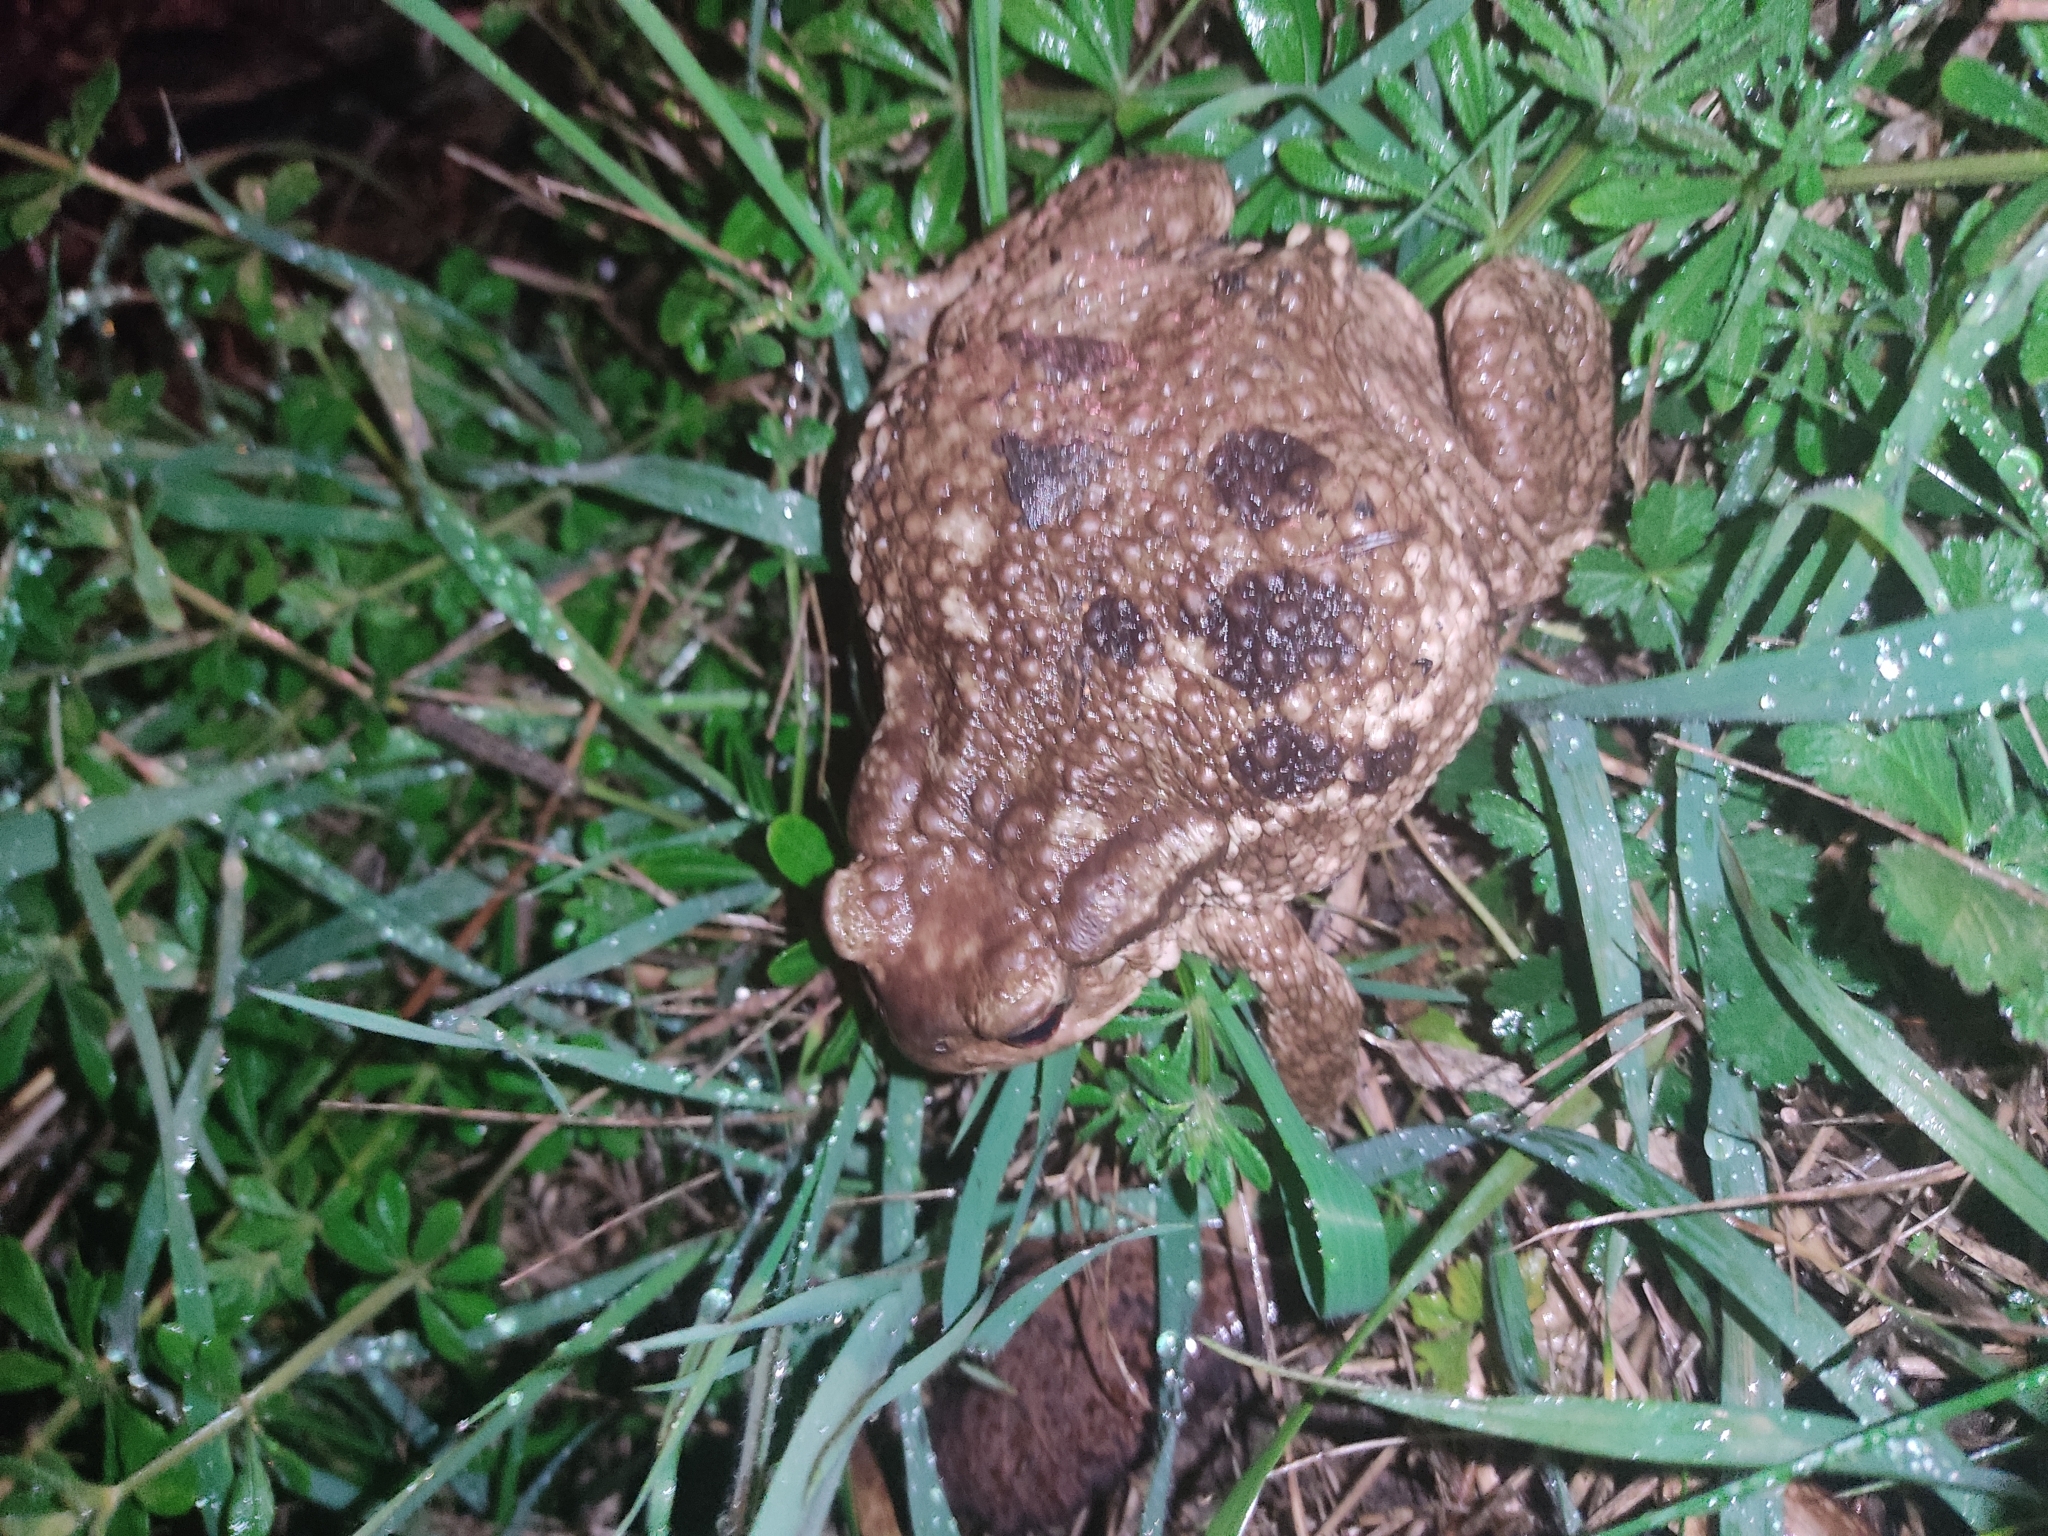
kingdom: Animalia
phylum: Chordata
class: Amphibia
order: Anura
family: Bufonidae
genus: Bufo
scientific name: Bufo spinosus
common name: Western common toad
